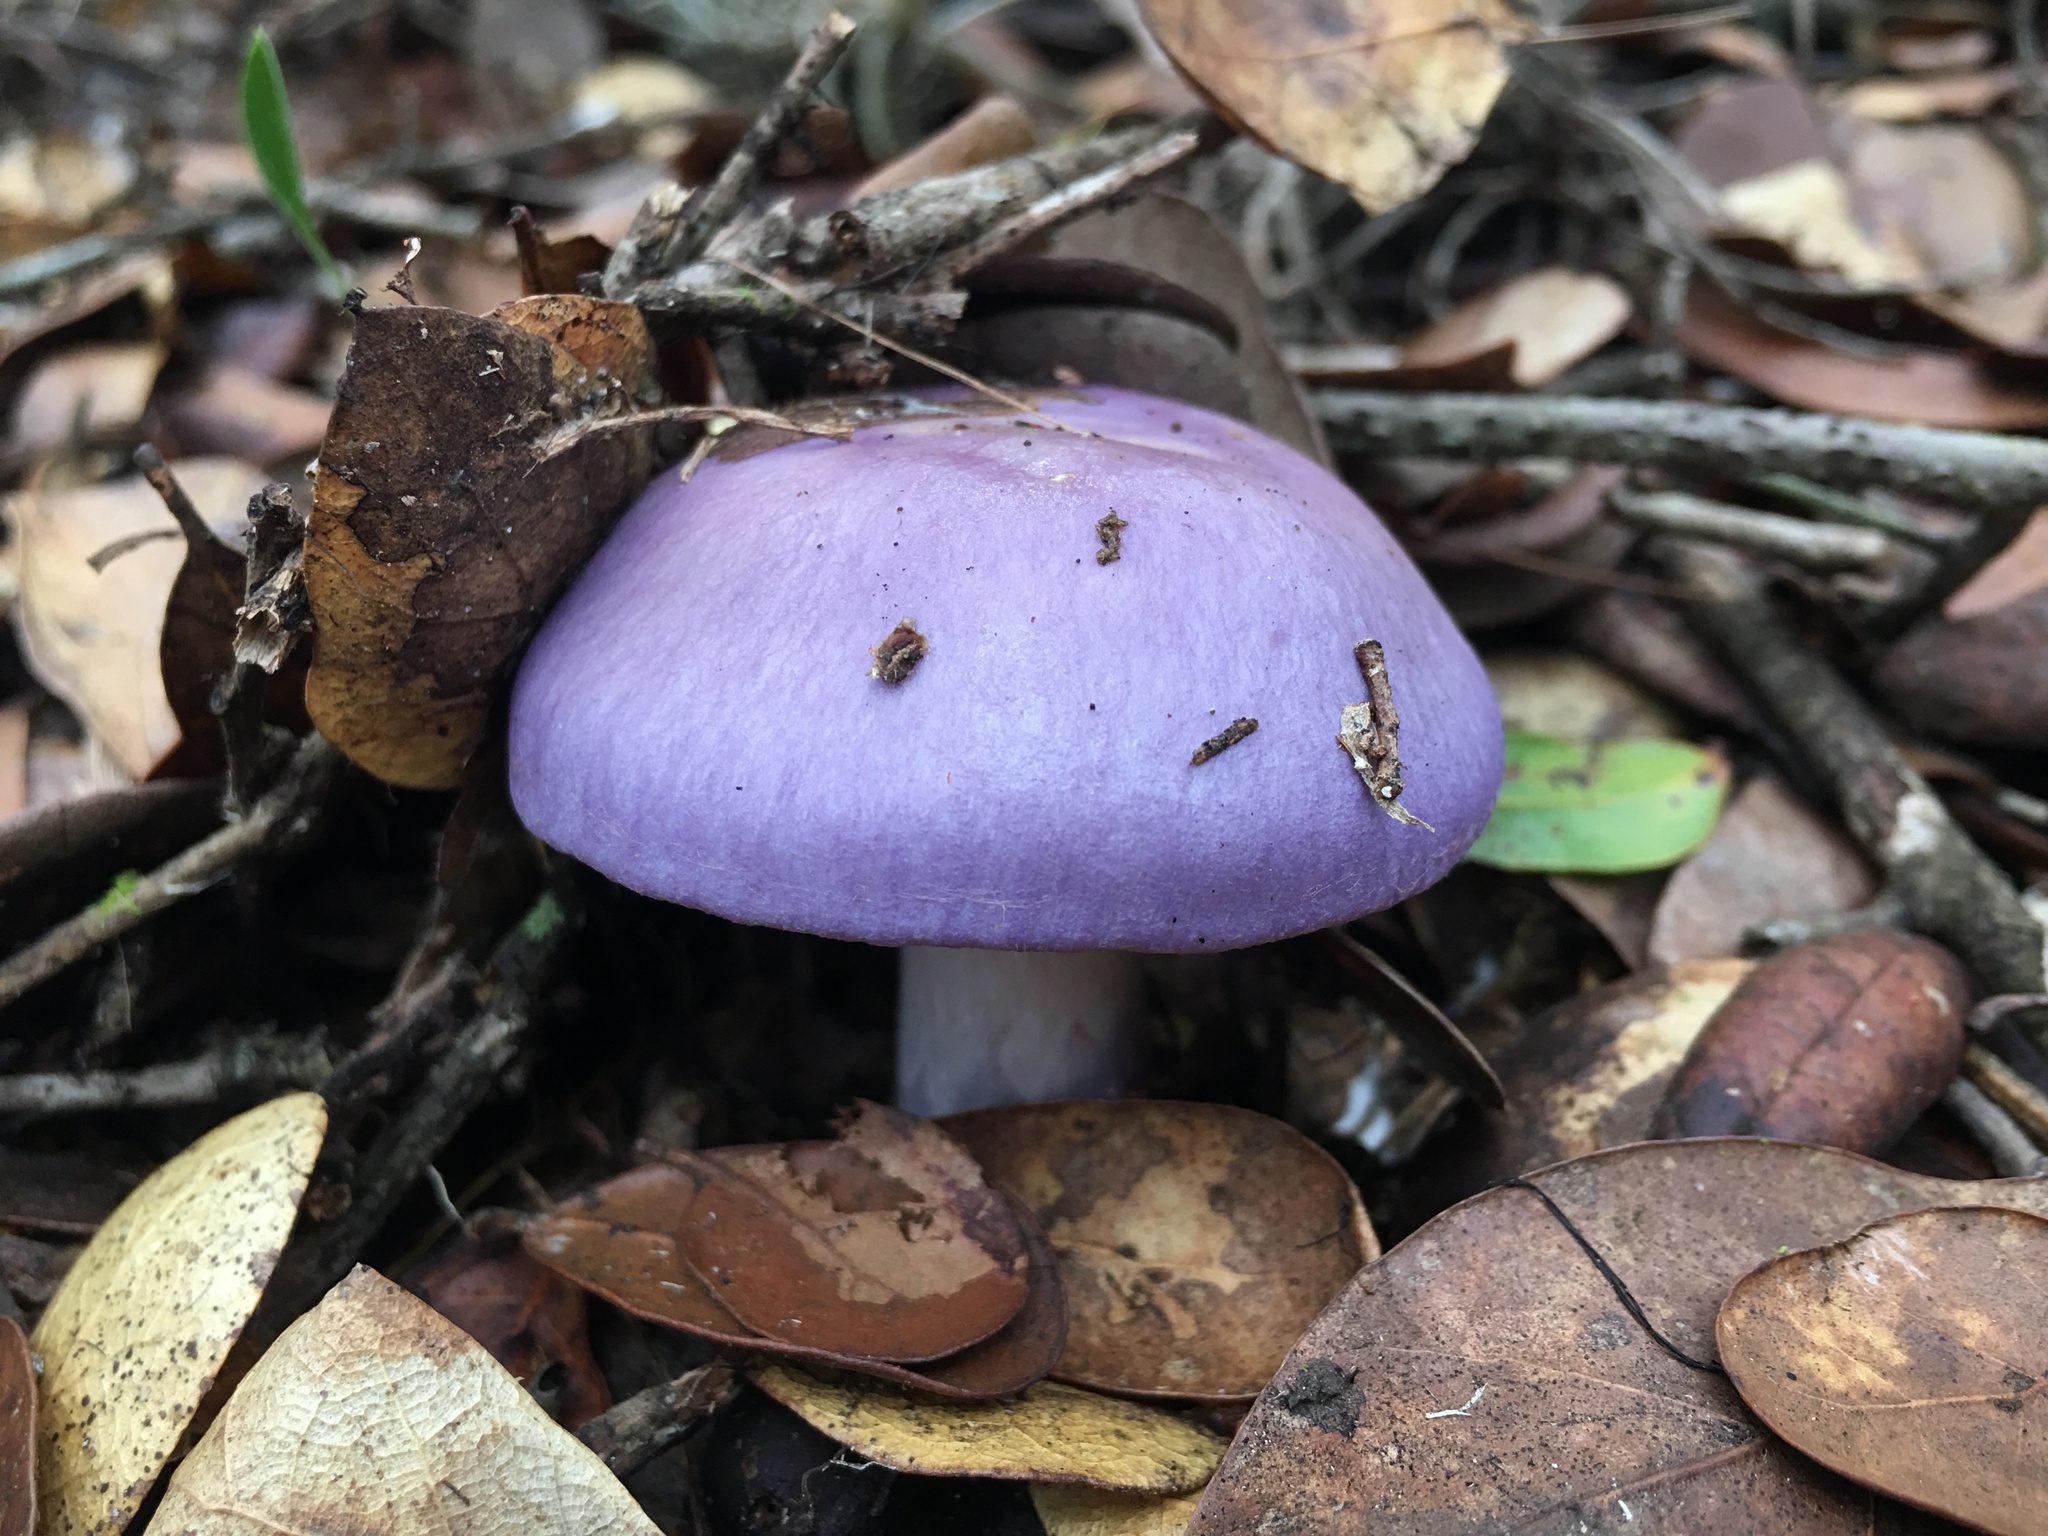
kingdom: Fungi
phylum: Basidiomycota
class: Agaricomycetes
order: Agaricales
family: Cortinariaceae
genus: Cortinarius
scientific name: Cortinarius iodes
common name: Viscid violet cort
